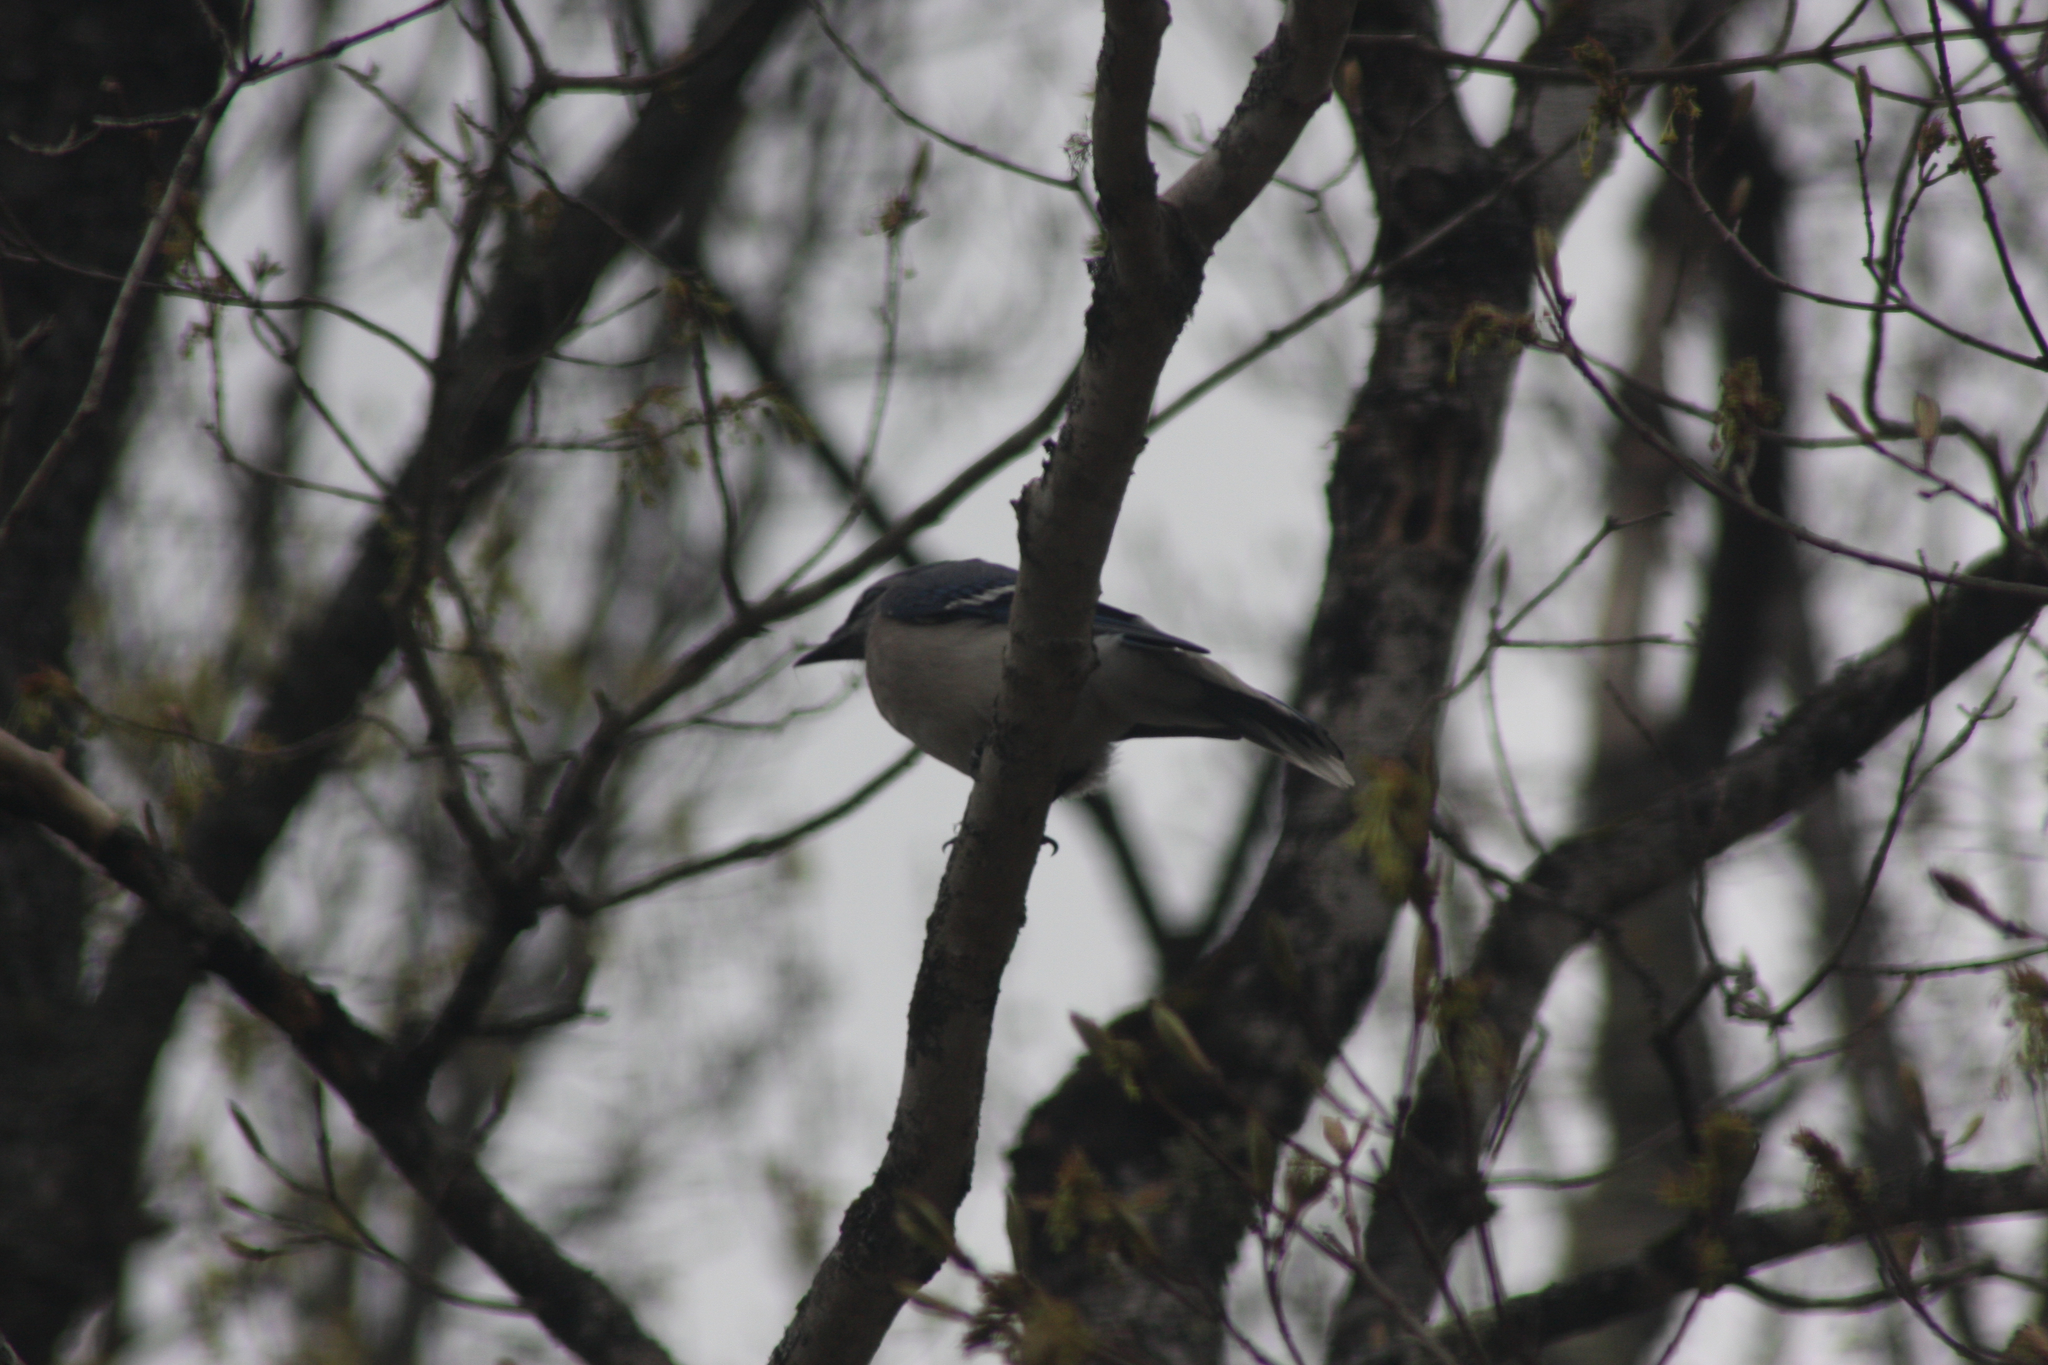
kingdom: Animalia
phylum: Chordata
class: Aves
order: Passeriformes
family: Corvidae
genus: Cyanocitta
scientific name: Cyanocitta cristata
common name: Blue jay
